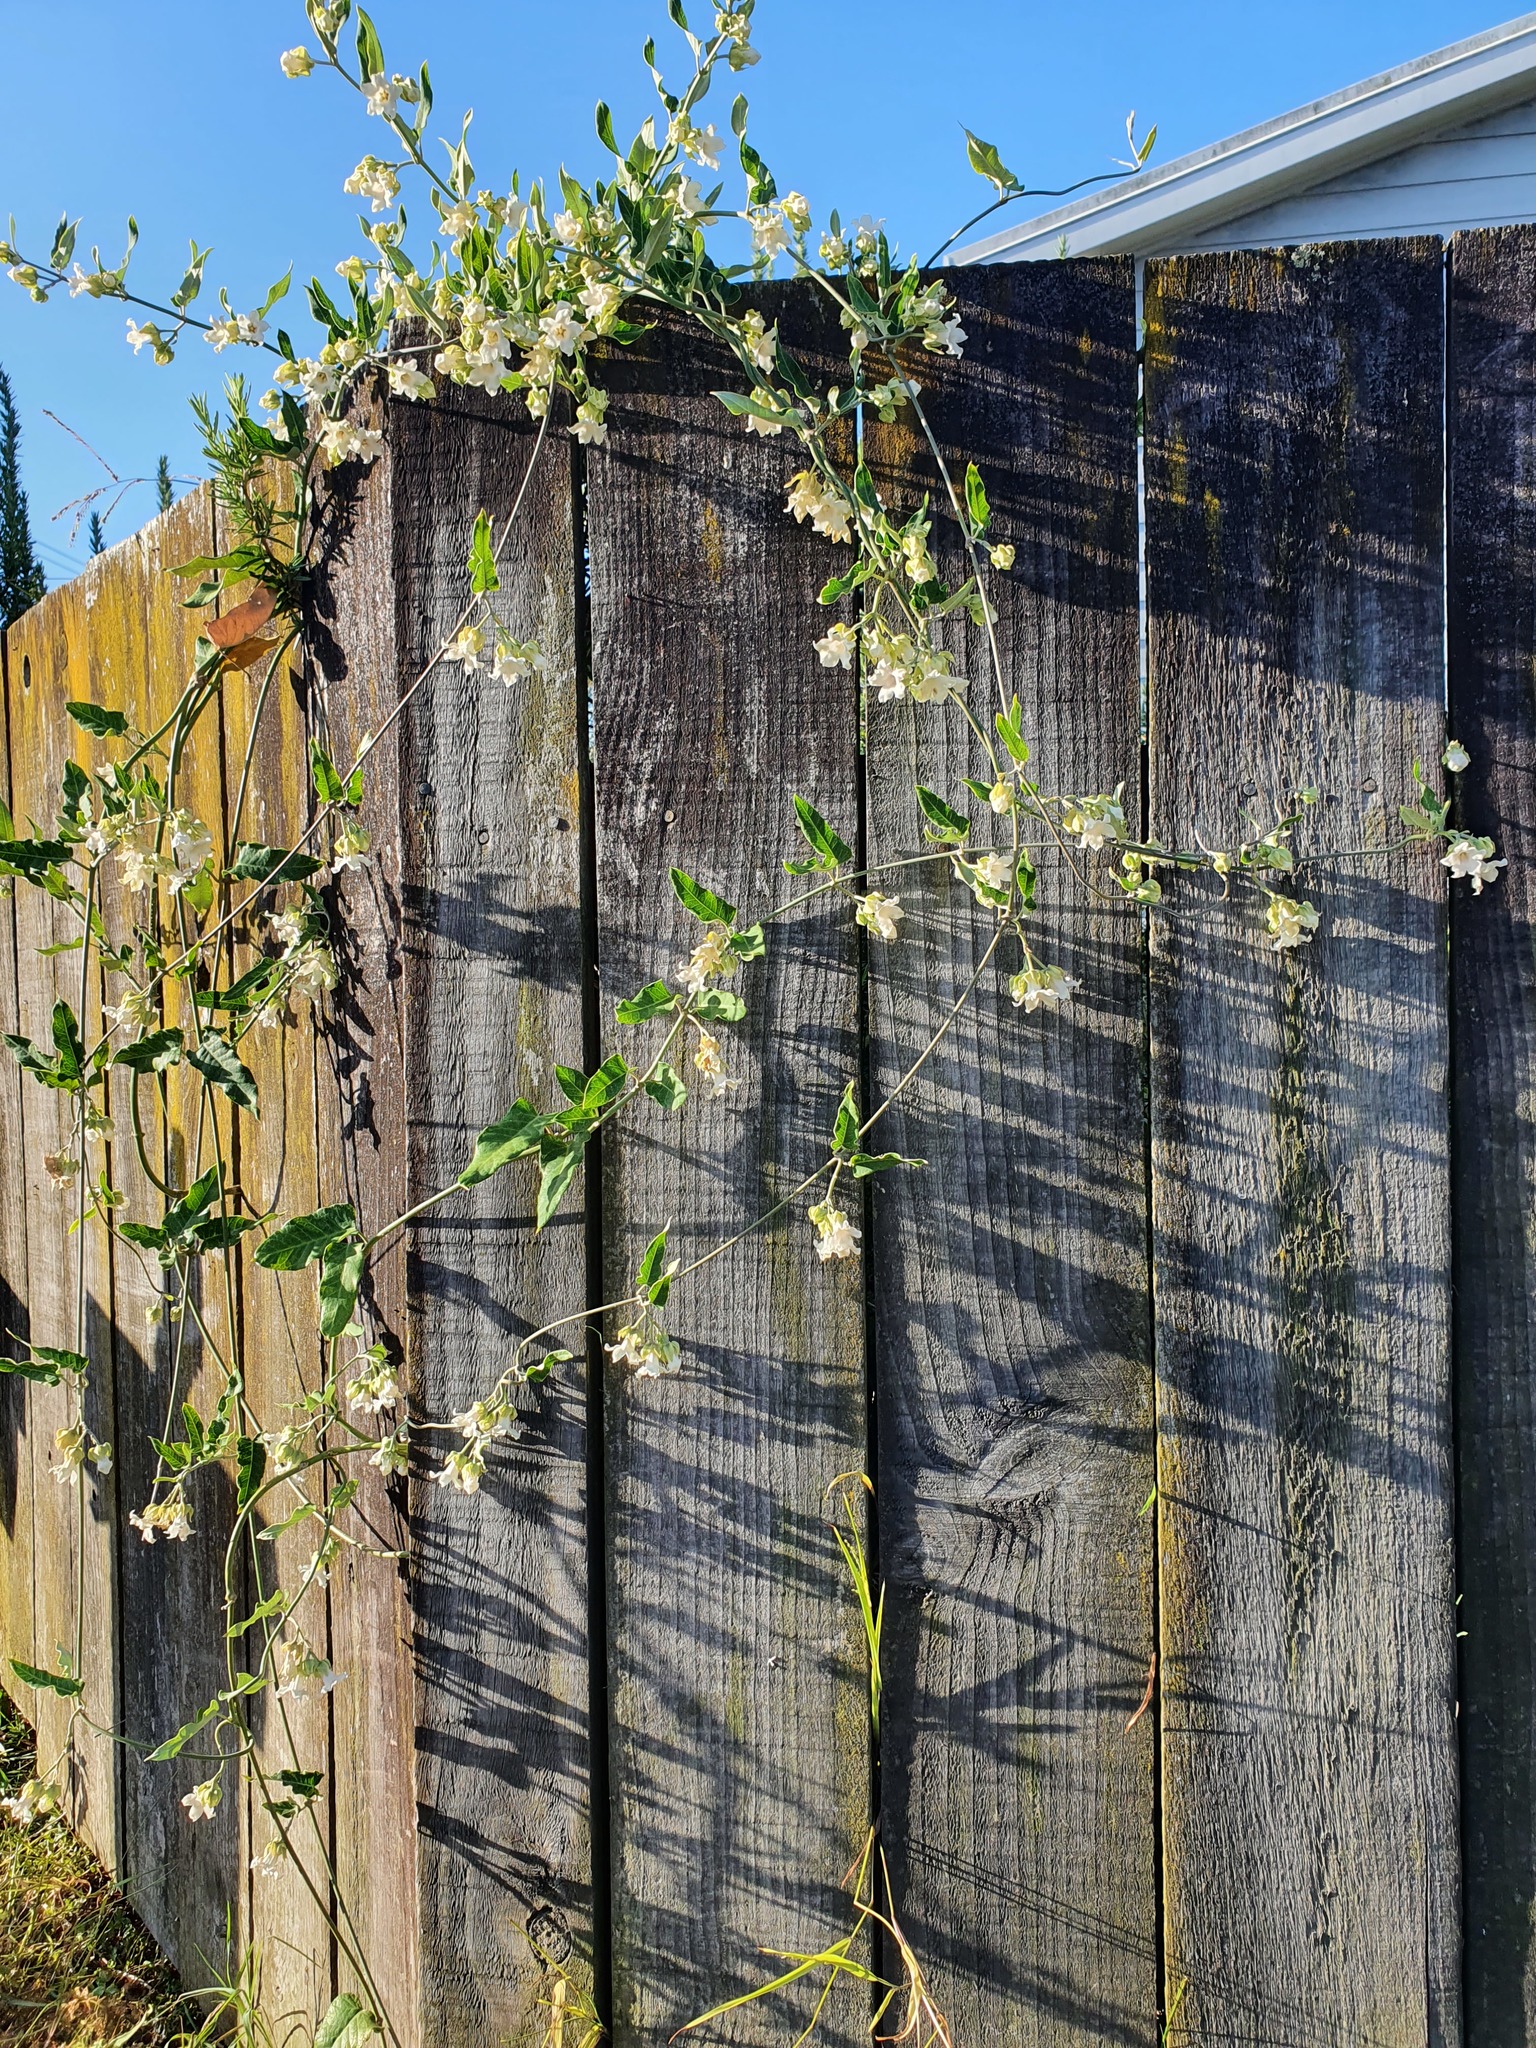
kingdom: Plantae
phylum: Tracheophyta
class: Magnoliopsida
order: Gentianales
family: Apocynaceae
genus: Araujia
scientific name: Araujia sericifera
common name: White bladderflower
